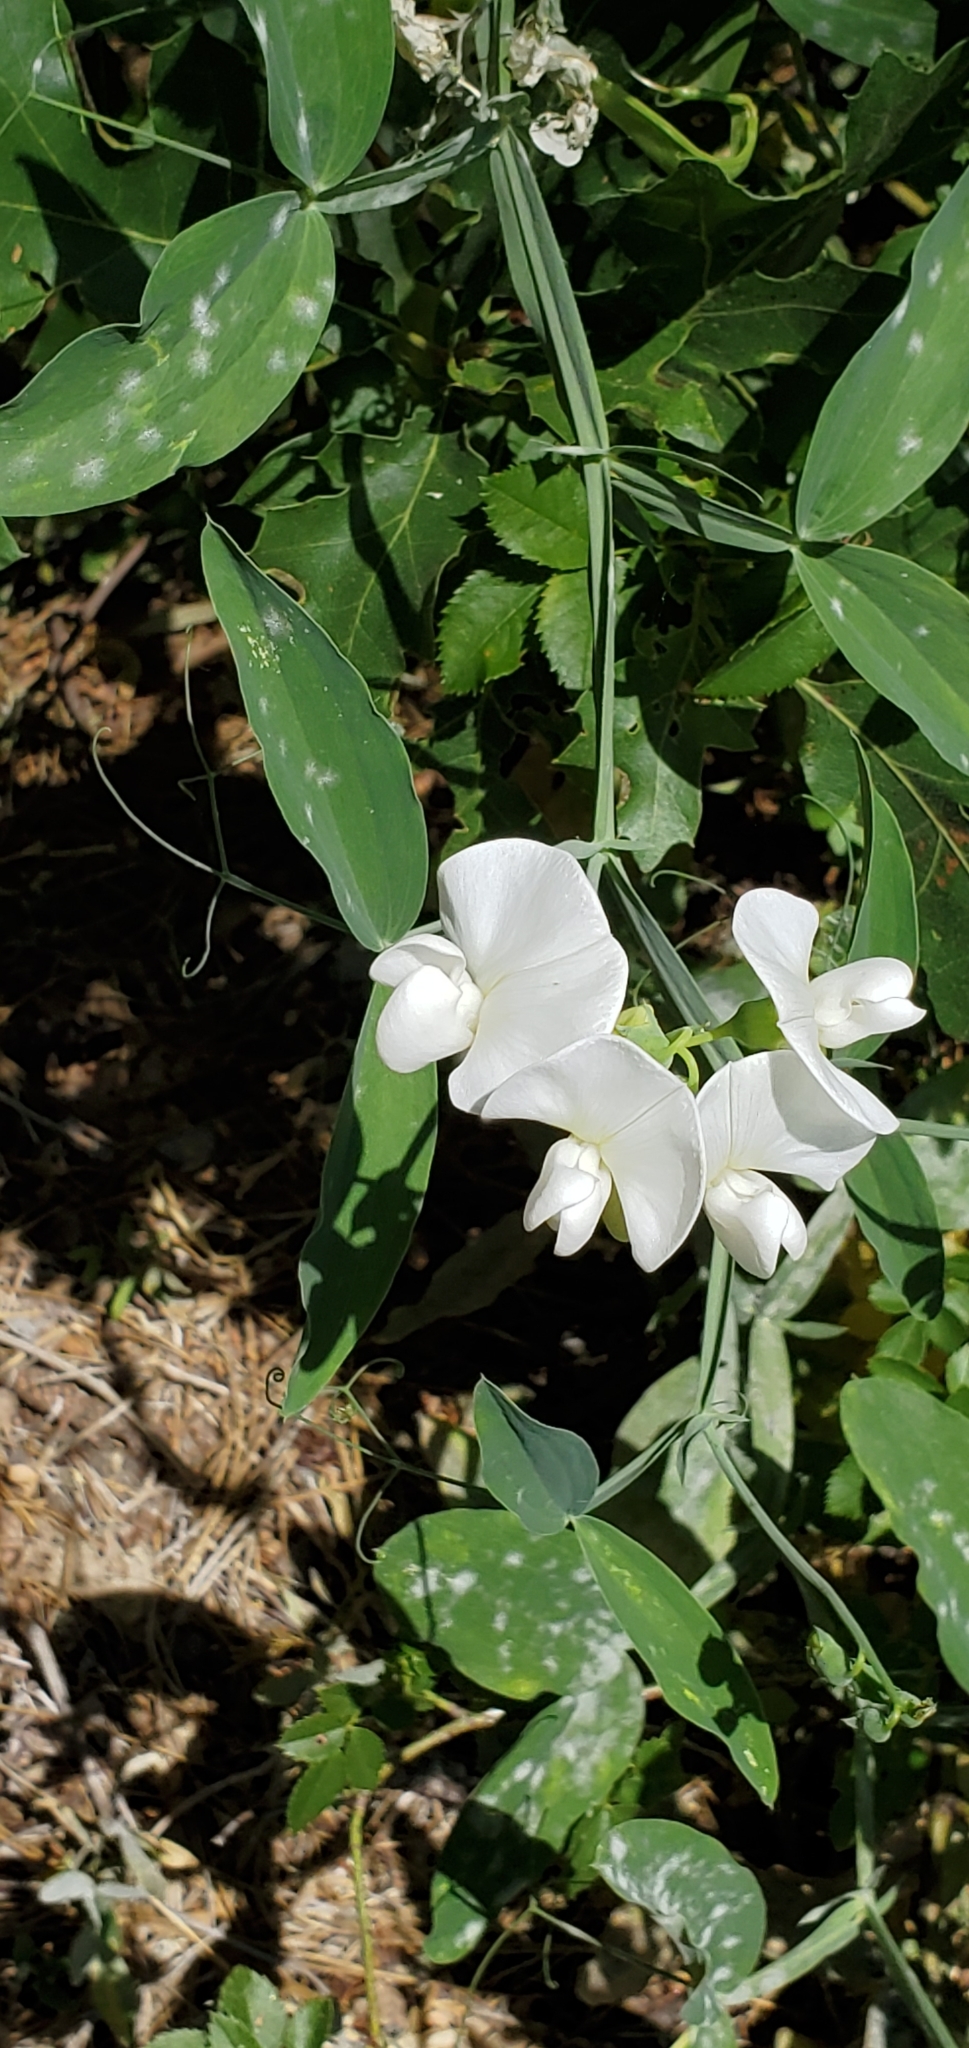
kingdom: Plantae
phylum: Tracheophyta
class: Magnoliopsida
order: Fabales
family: Fabaceae
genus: Lathyrus
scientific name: Lathyrus latifolius
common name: Perennial pea
